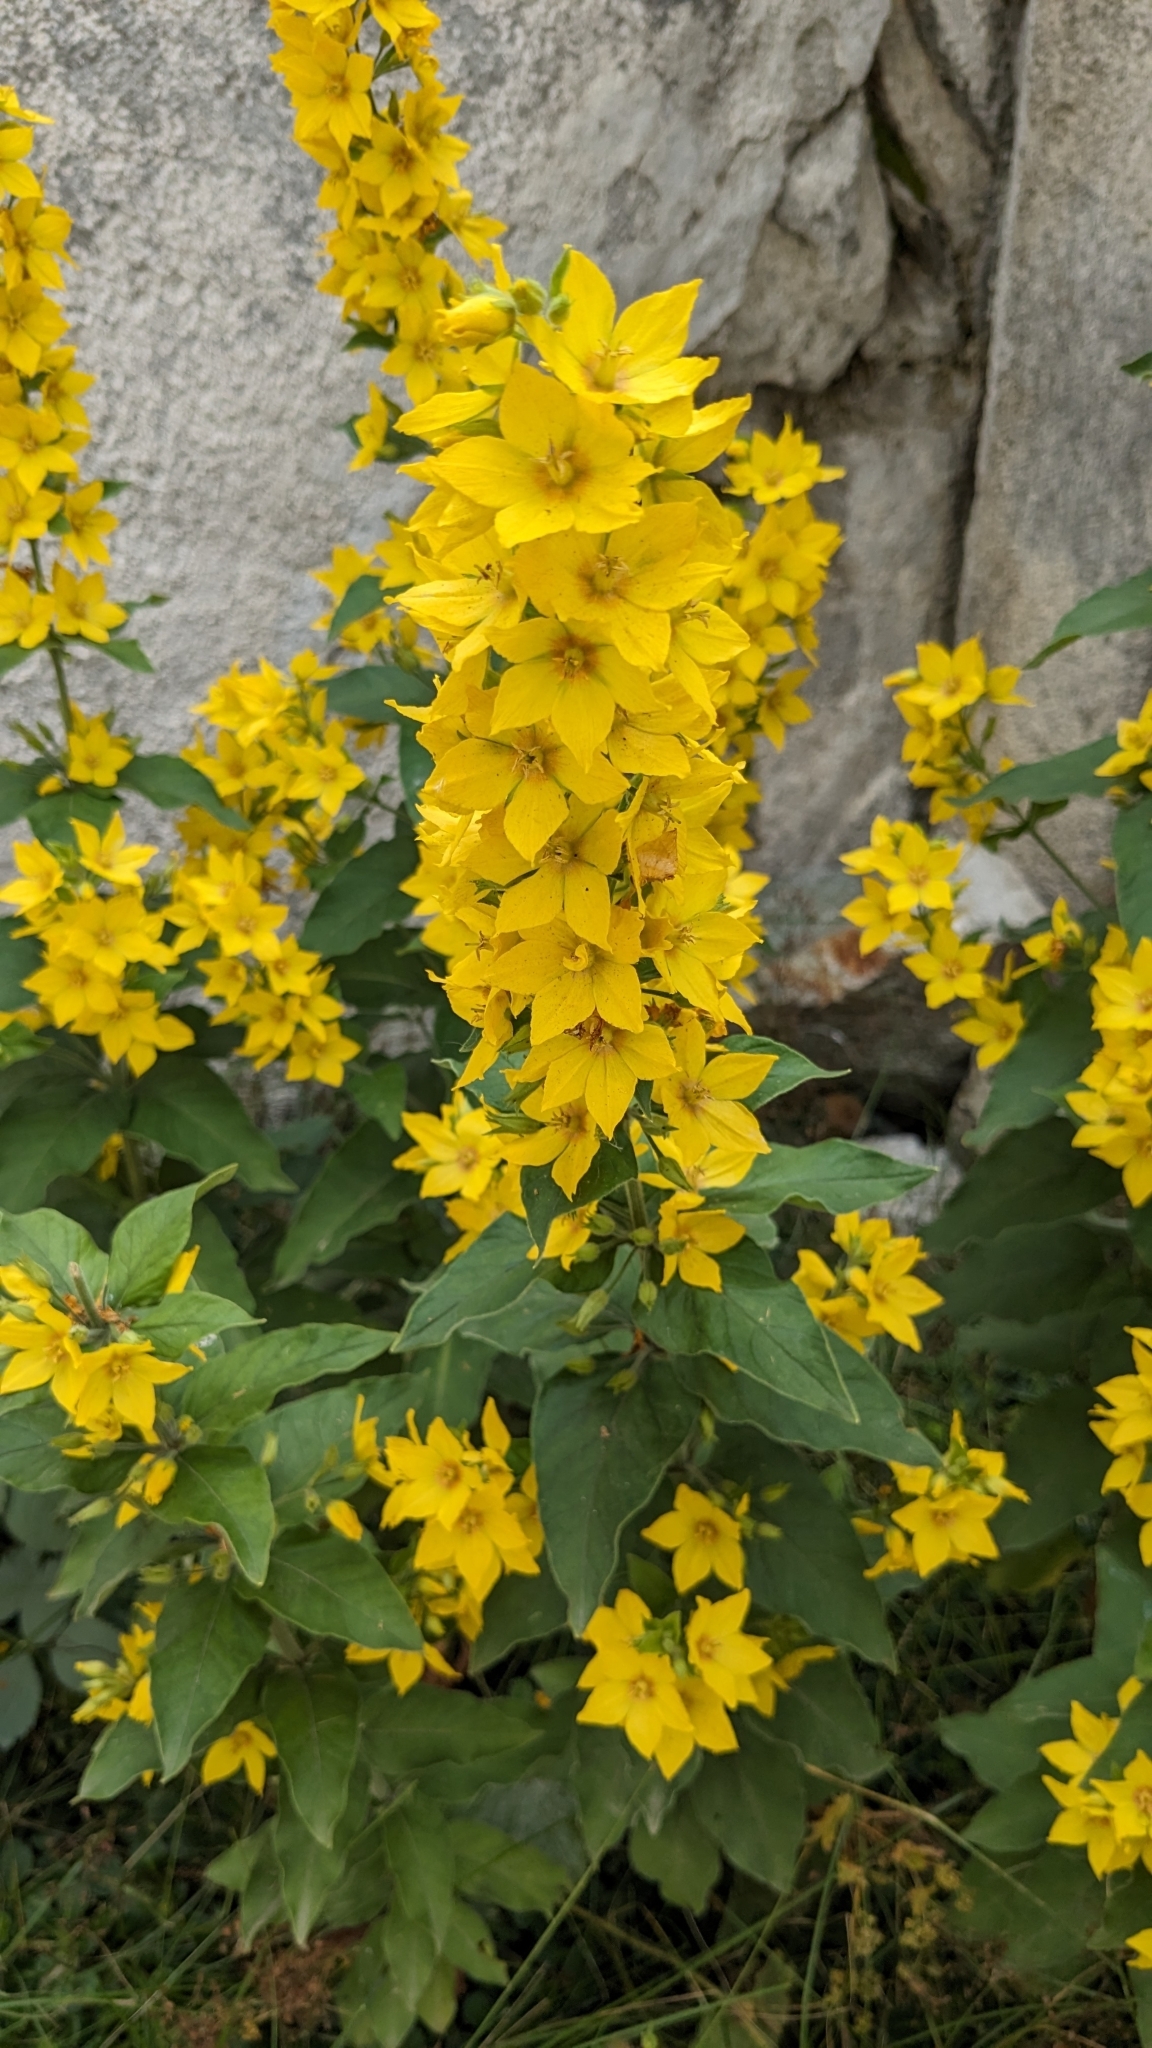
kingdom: Plantae
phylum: Tracheophyta
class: Magnoliopsida
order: Ericales
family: Primulaceae
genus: Lysimachia
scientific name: Lysimachia punctata
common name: Dotted loosestrife
